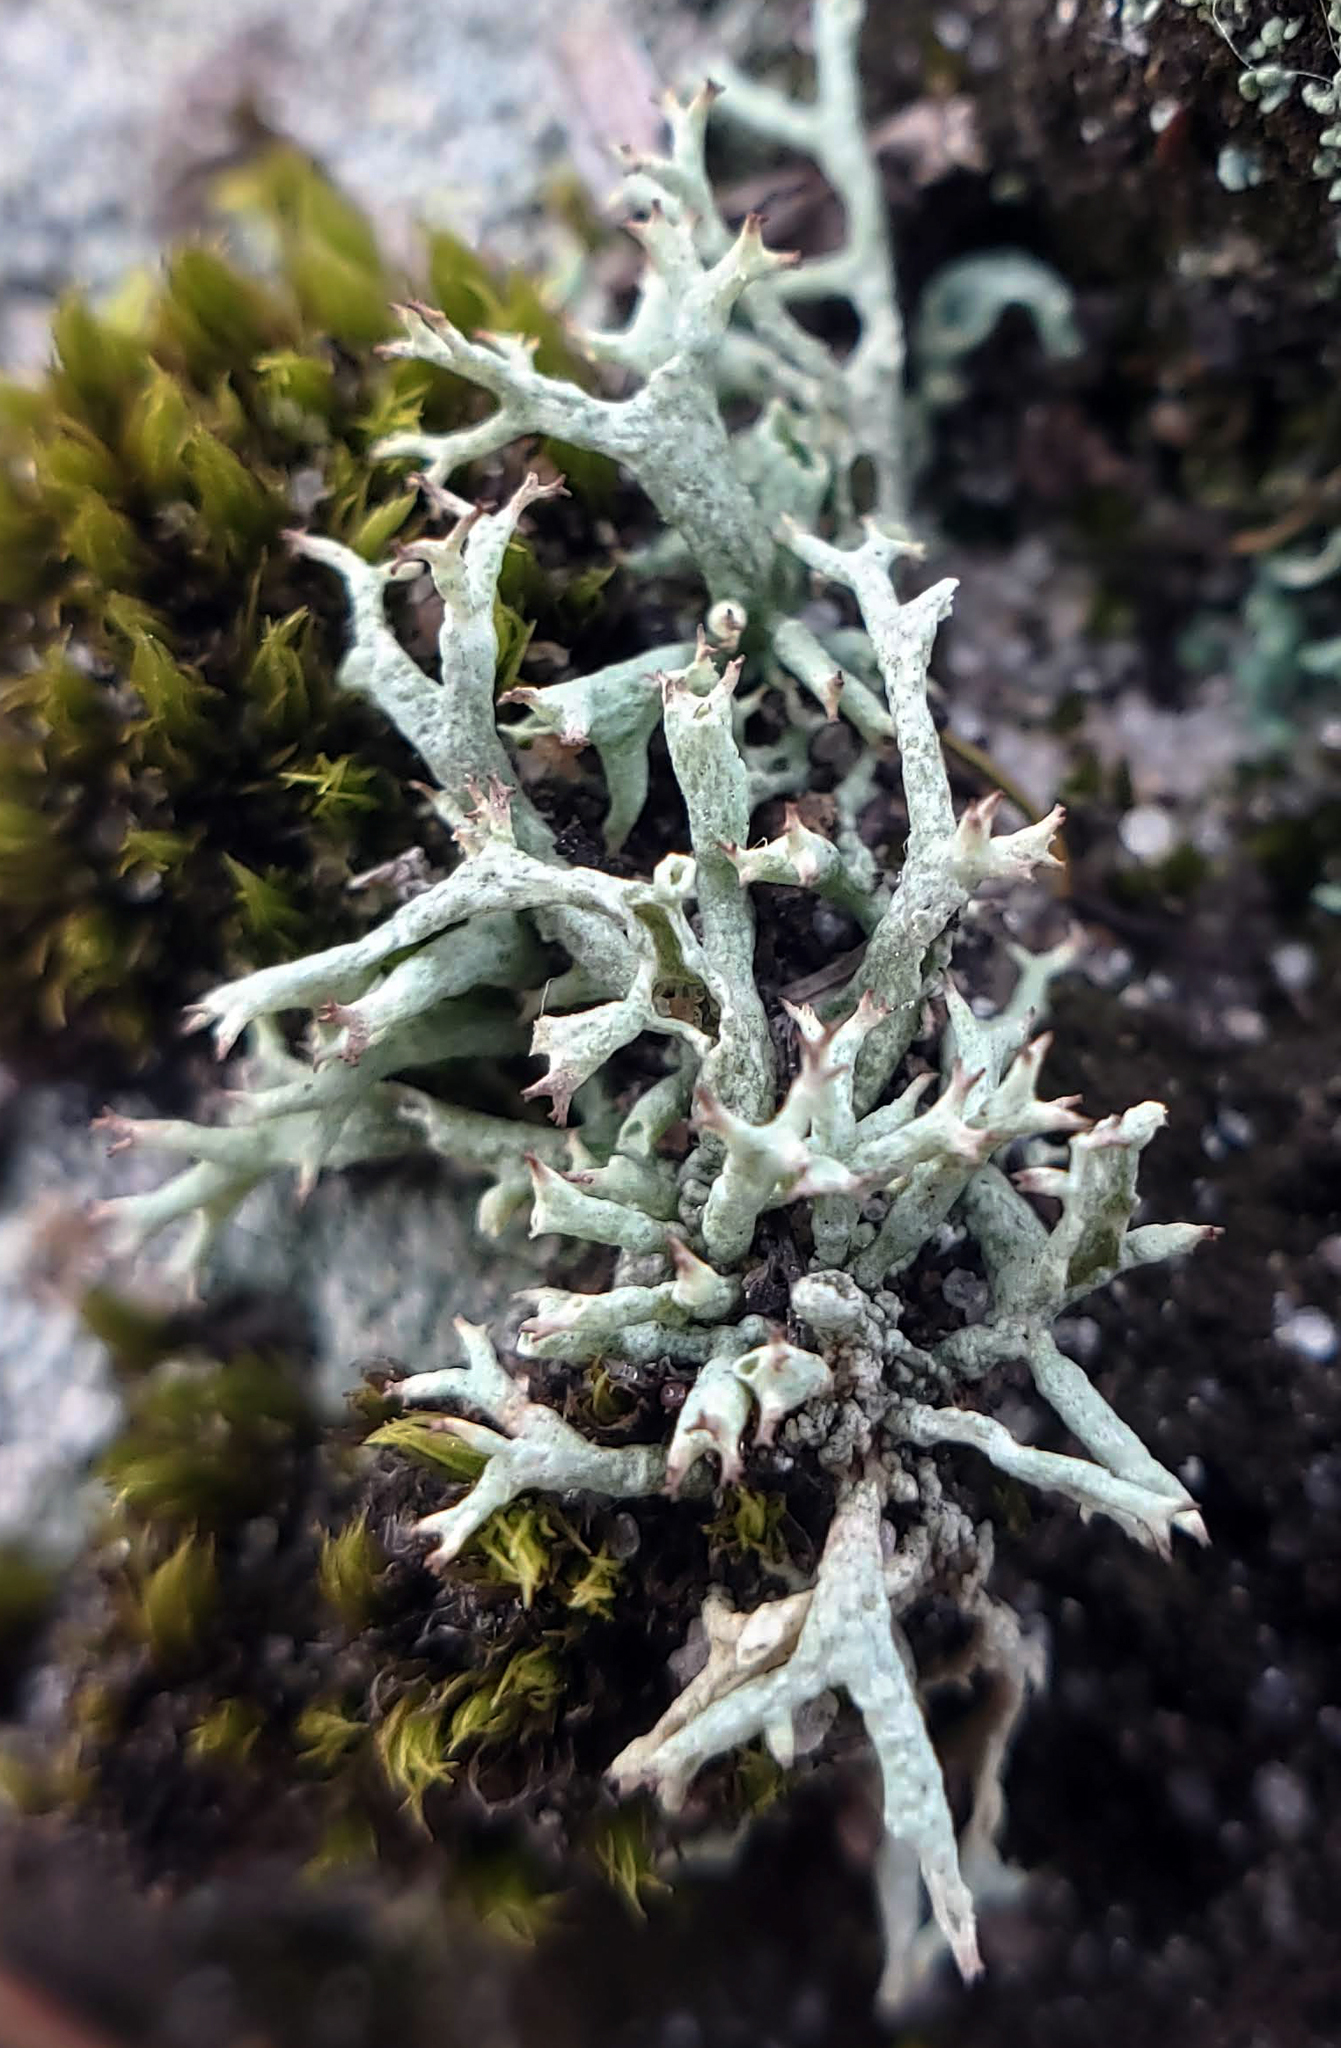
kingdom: Fungi
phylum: Ascomycota
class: Lecanoromycetes
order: Lecanorales
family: Cladoniaceae
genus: Cladonia
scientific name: Cladonia dimorphoclada
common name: Prostrate thorn cladonia
